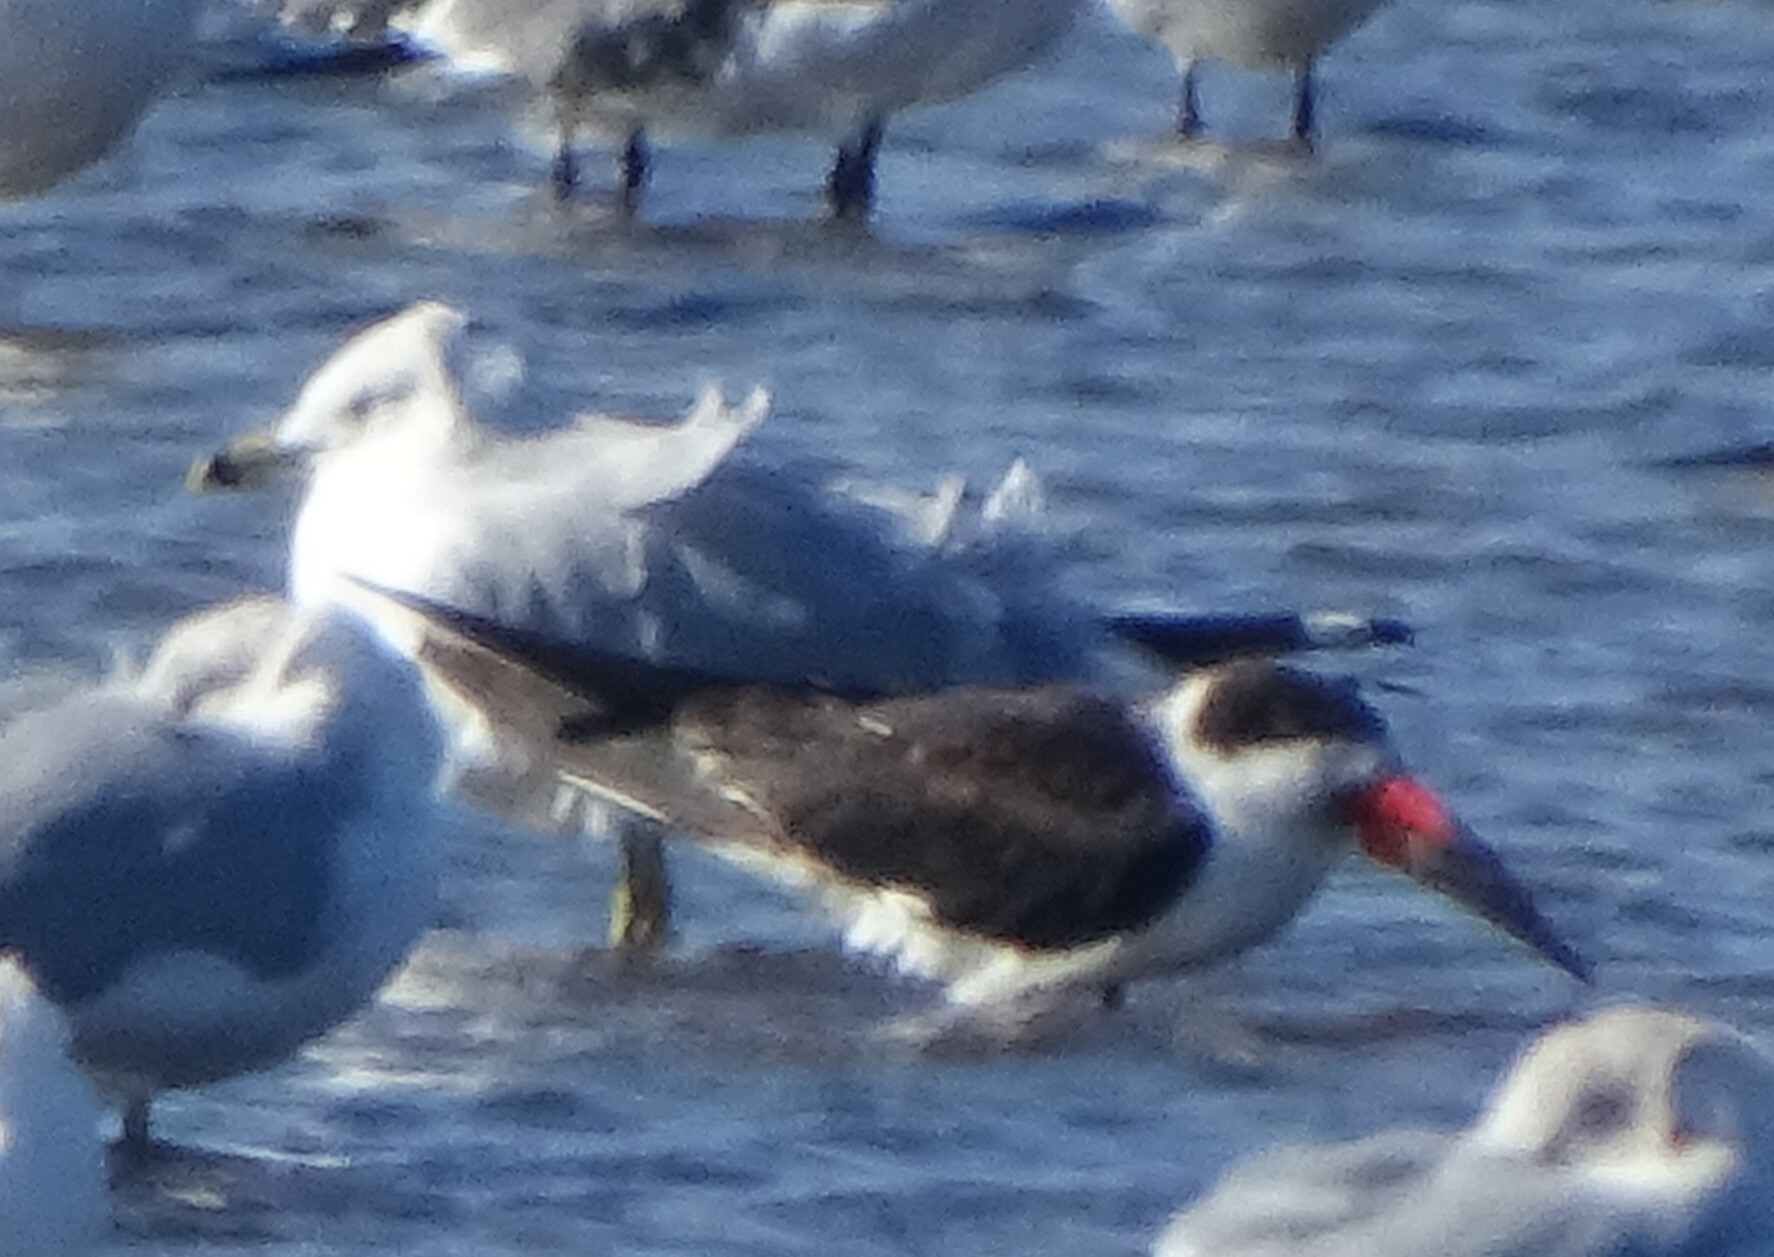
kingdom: Animalia
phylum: Chordata
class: Aves
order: Charadriiformes
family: Laridae
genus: Rynchops
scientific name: Rynchops niger
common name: Black skimmer
